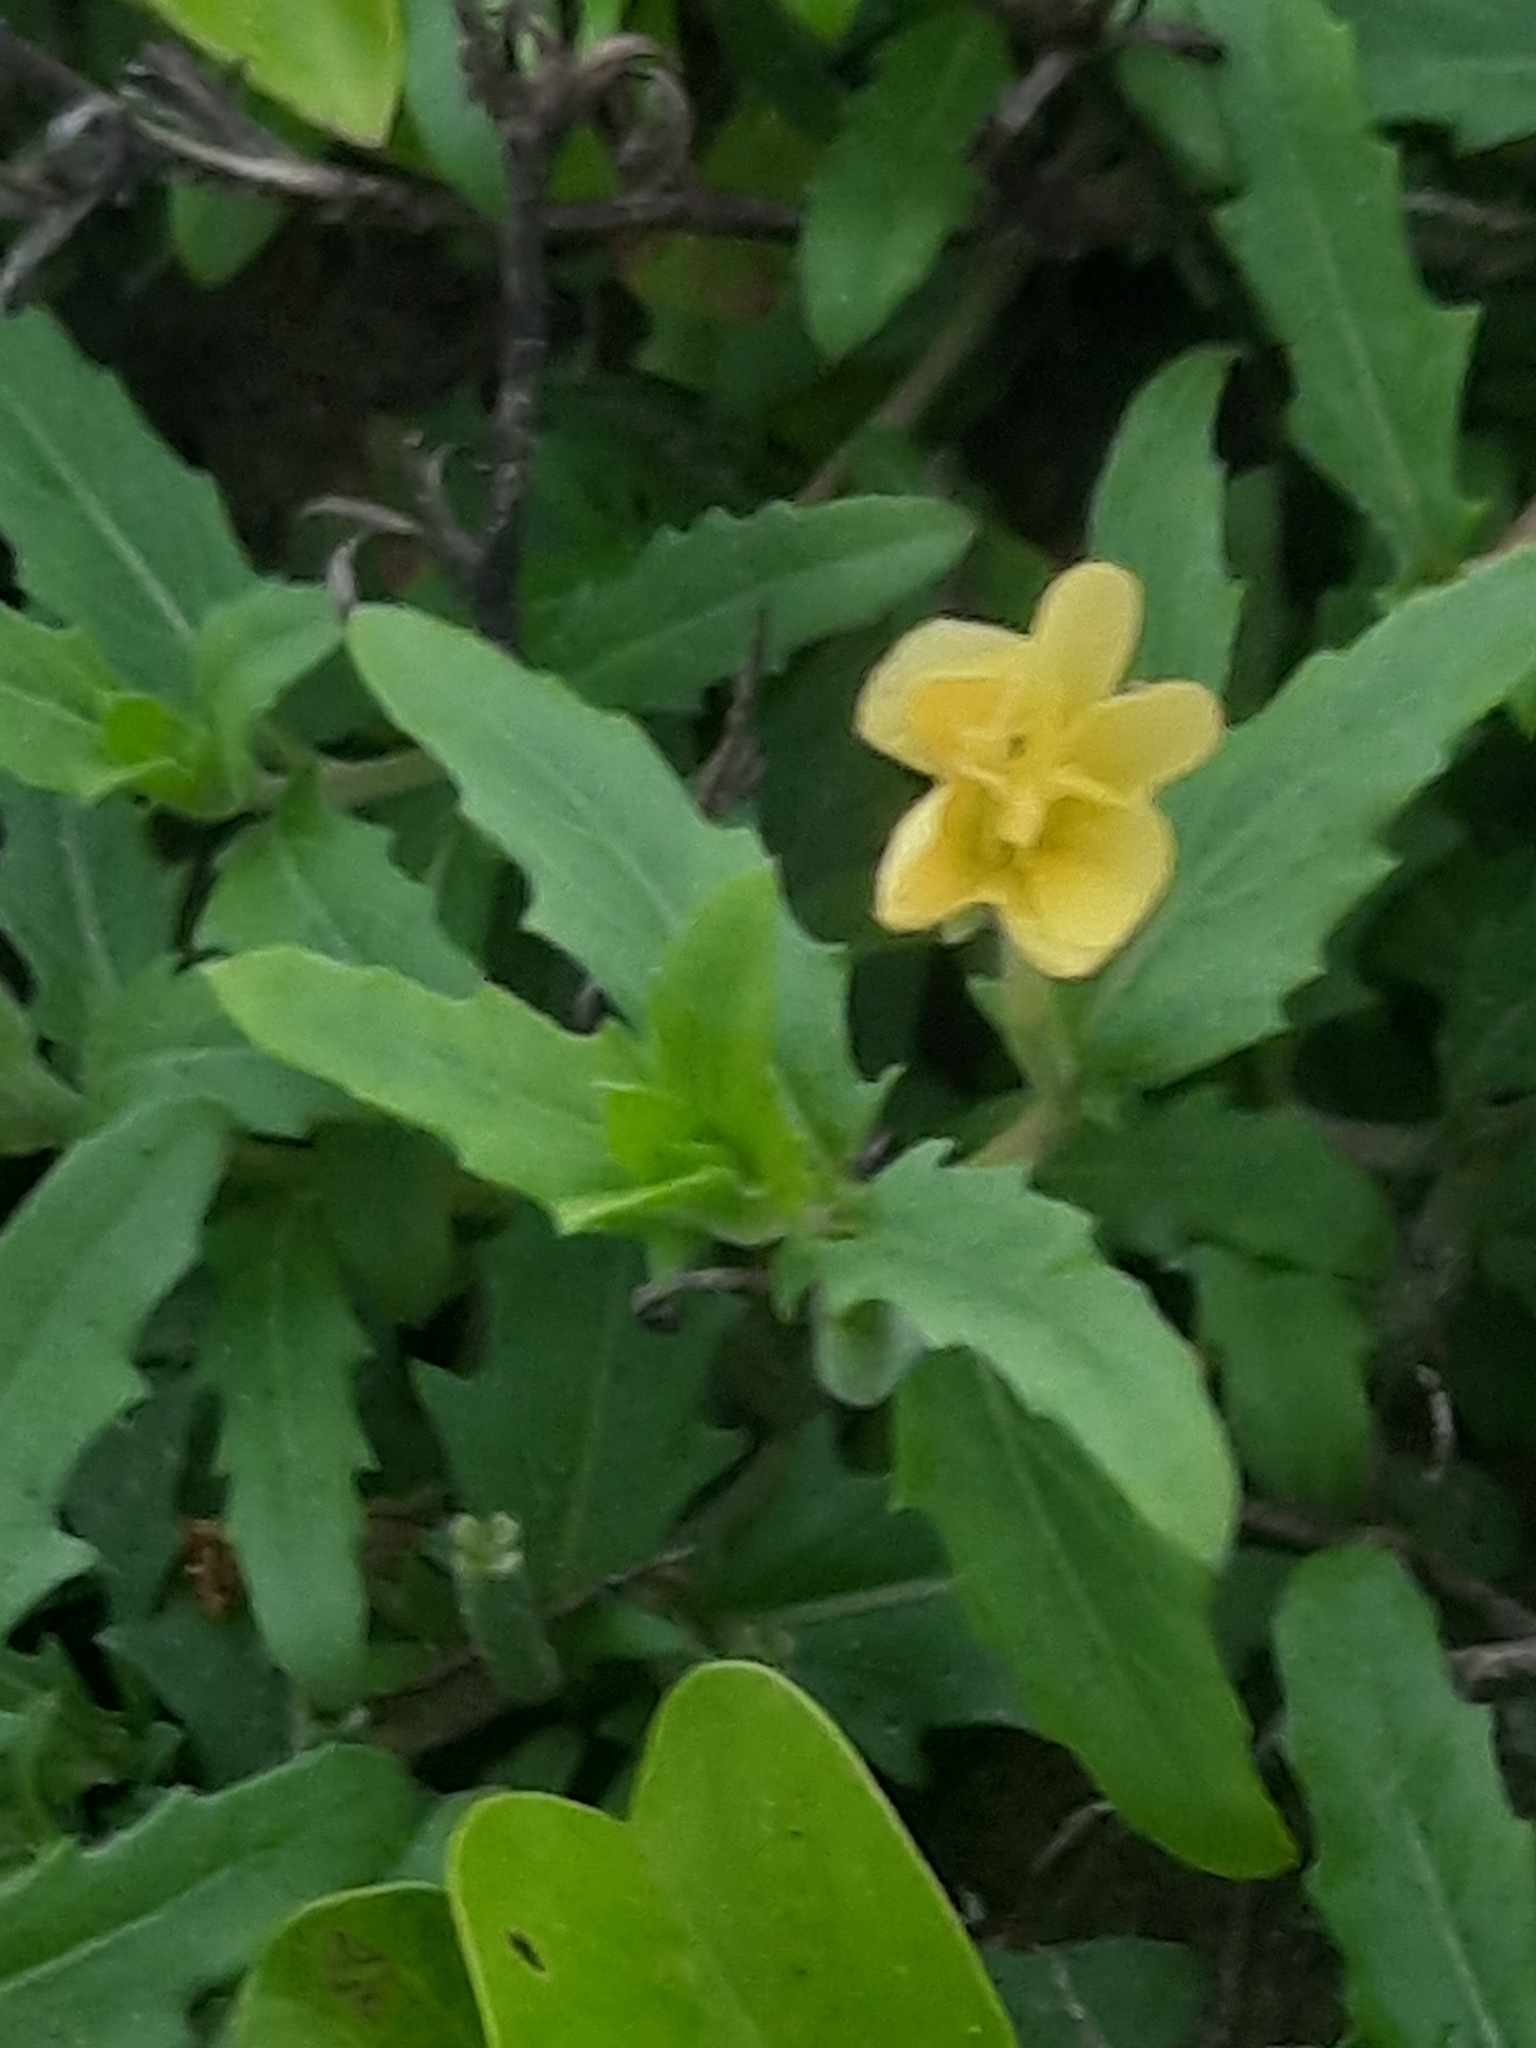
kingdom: Plantae
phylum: Tracheophyta
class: Magnoliopsida
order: Myrtales
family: Onagraceae
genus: Oenothera
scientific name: Oenothera laciniata
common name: Cut-leaved evening-primrose
